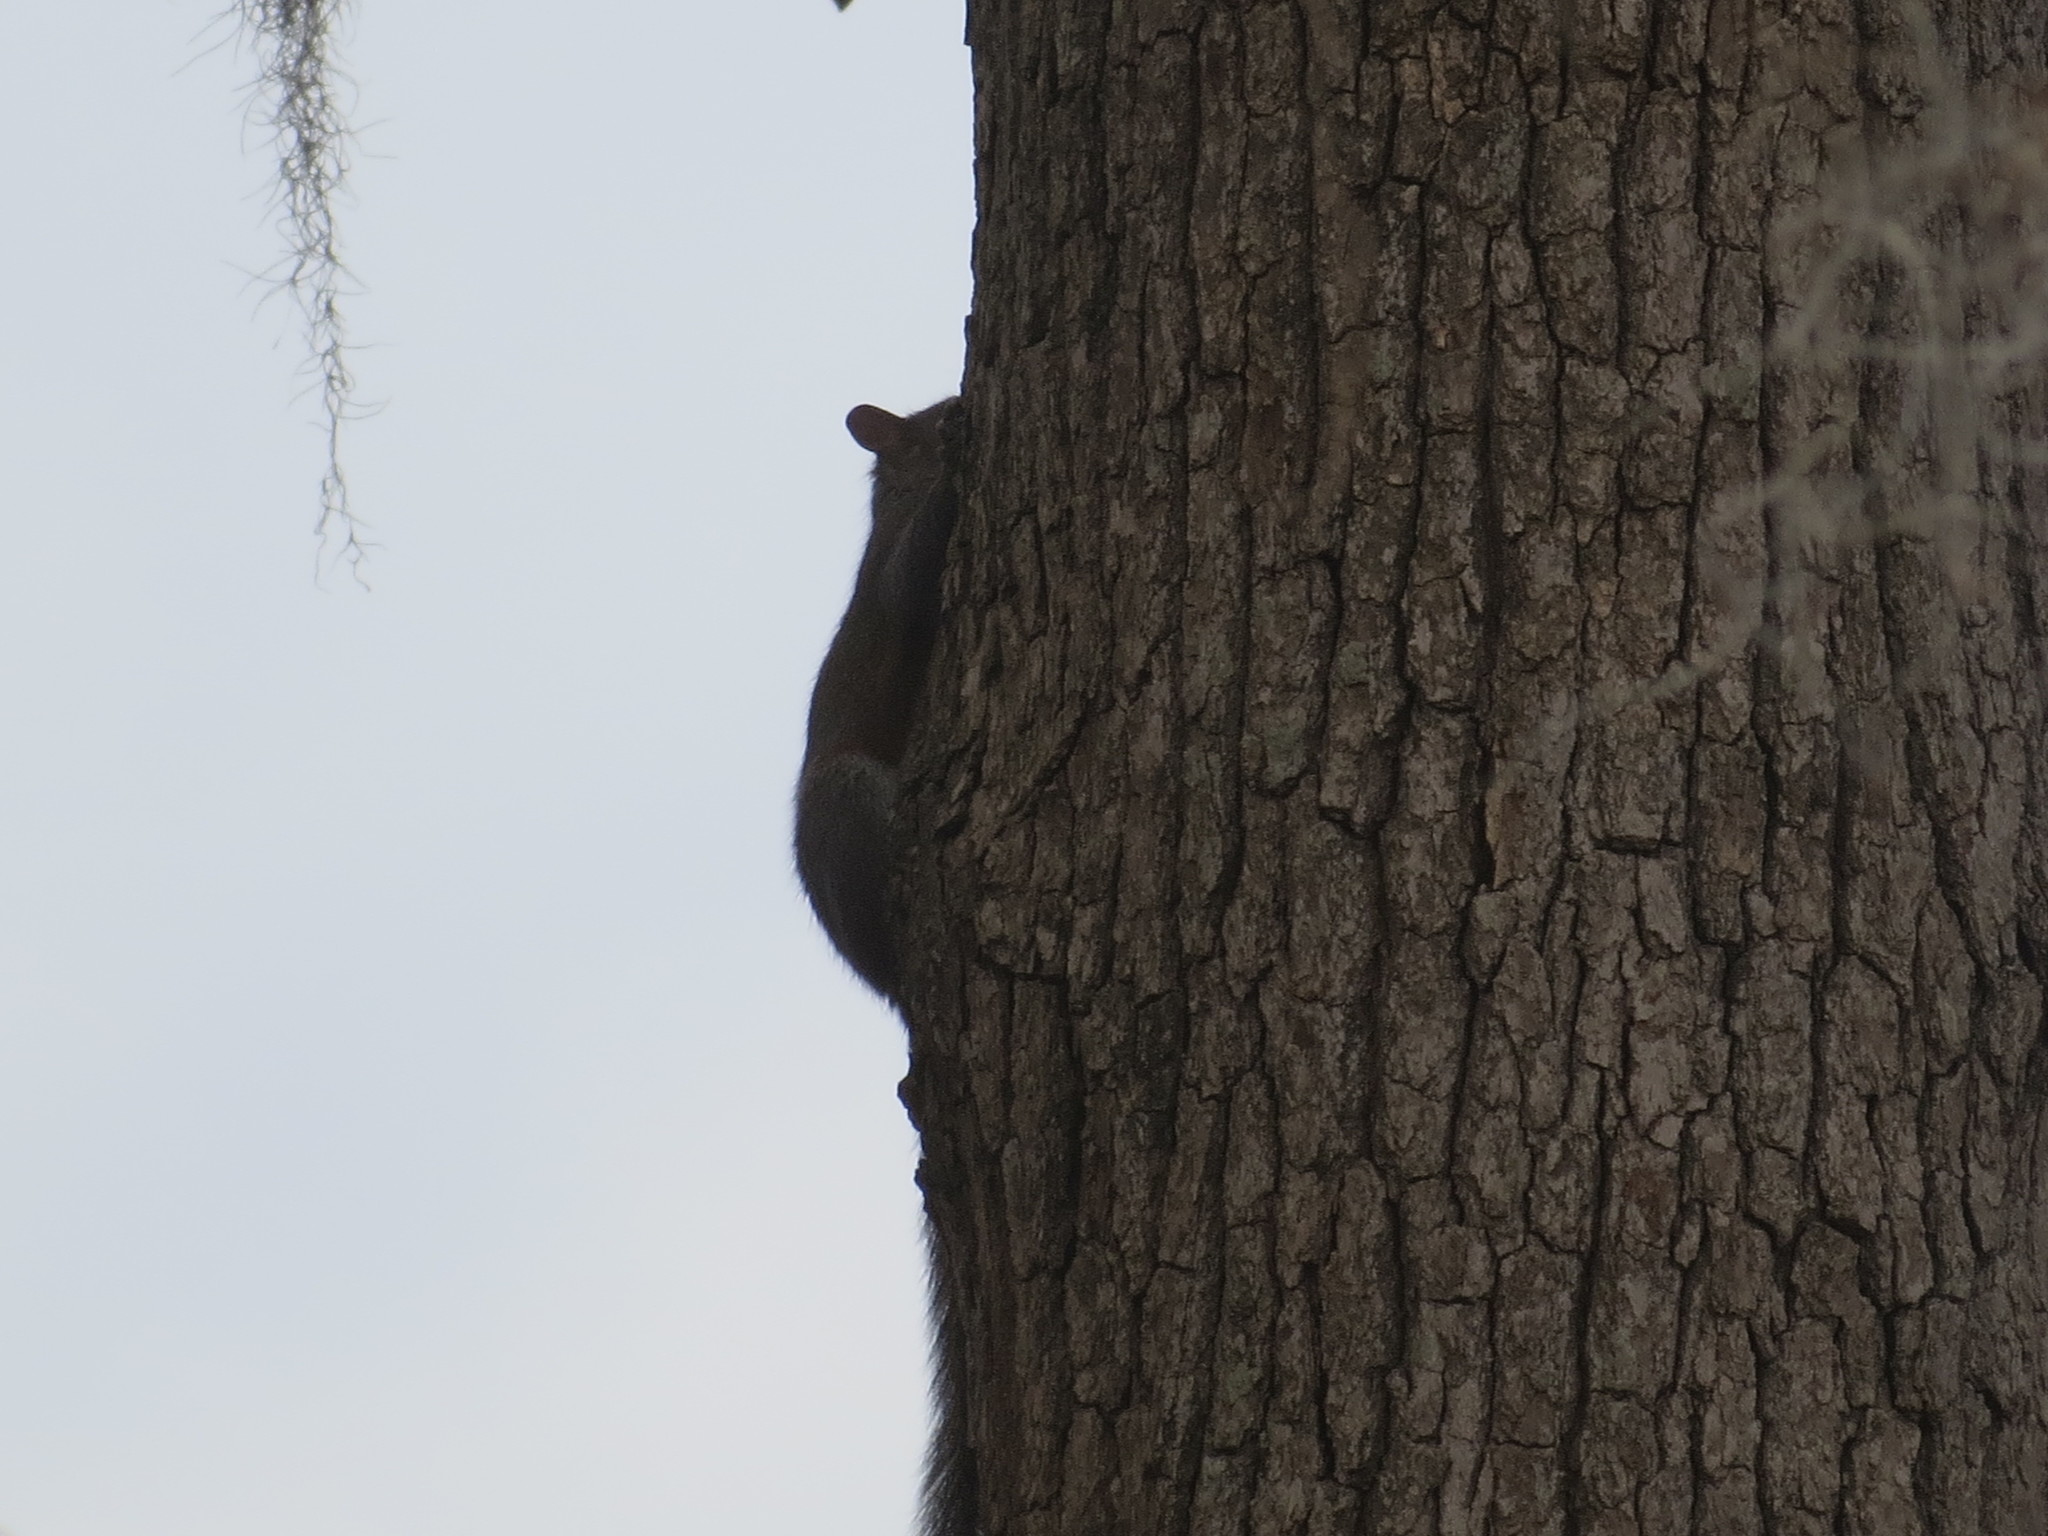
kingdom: Animalia
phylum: Chordata
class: Mammalia
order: Rodentia
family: Sciuridae
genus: Sciurus
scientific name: Sciurus carolinensis
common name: Eastern gray squirrel
